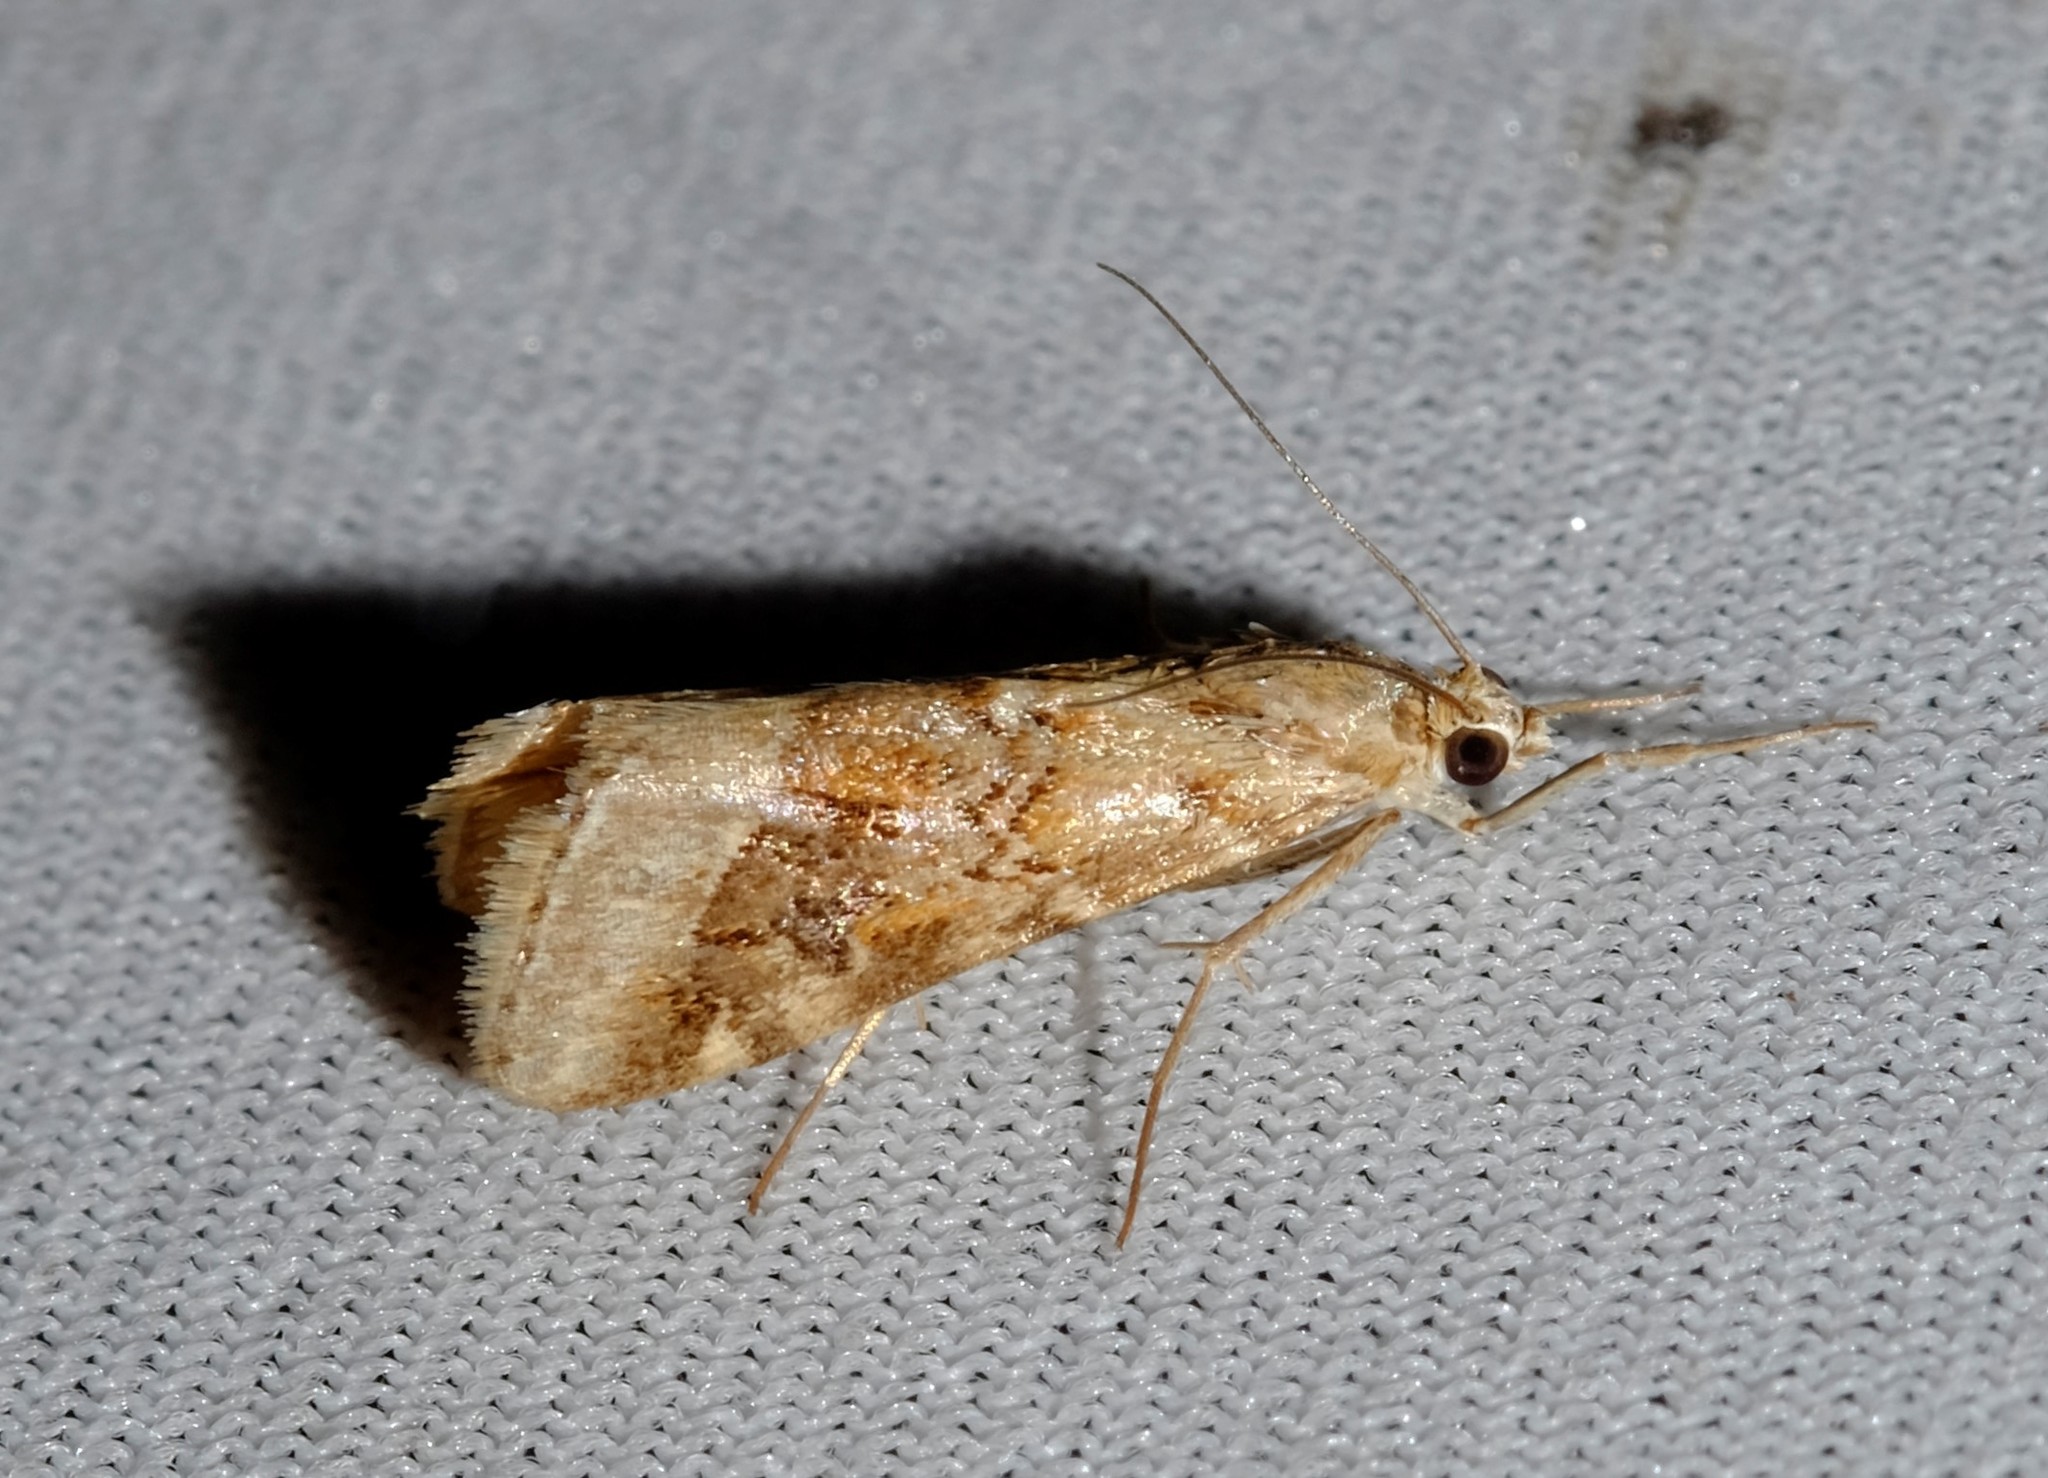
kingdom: Animalia
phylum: Arthropoda
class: Insecta
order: Lepidoptera
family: Crambidae
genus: Hellula
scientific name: Hellula hydralis
